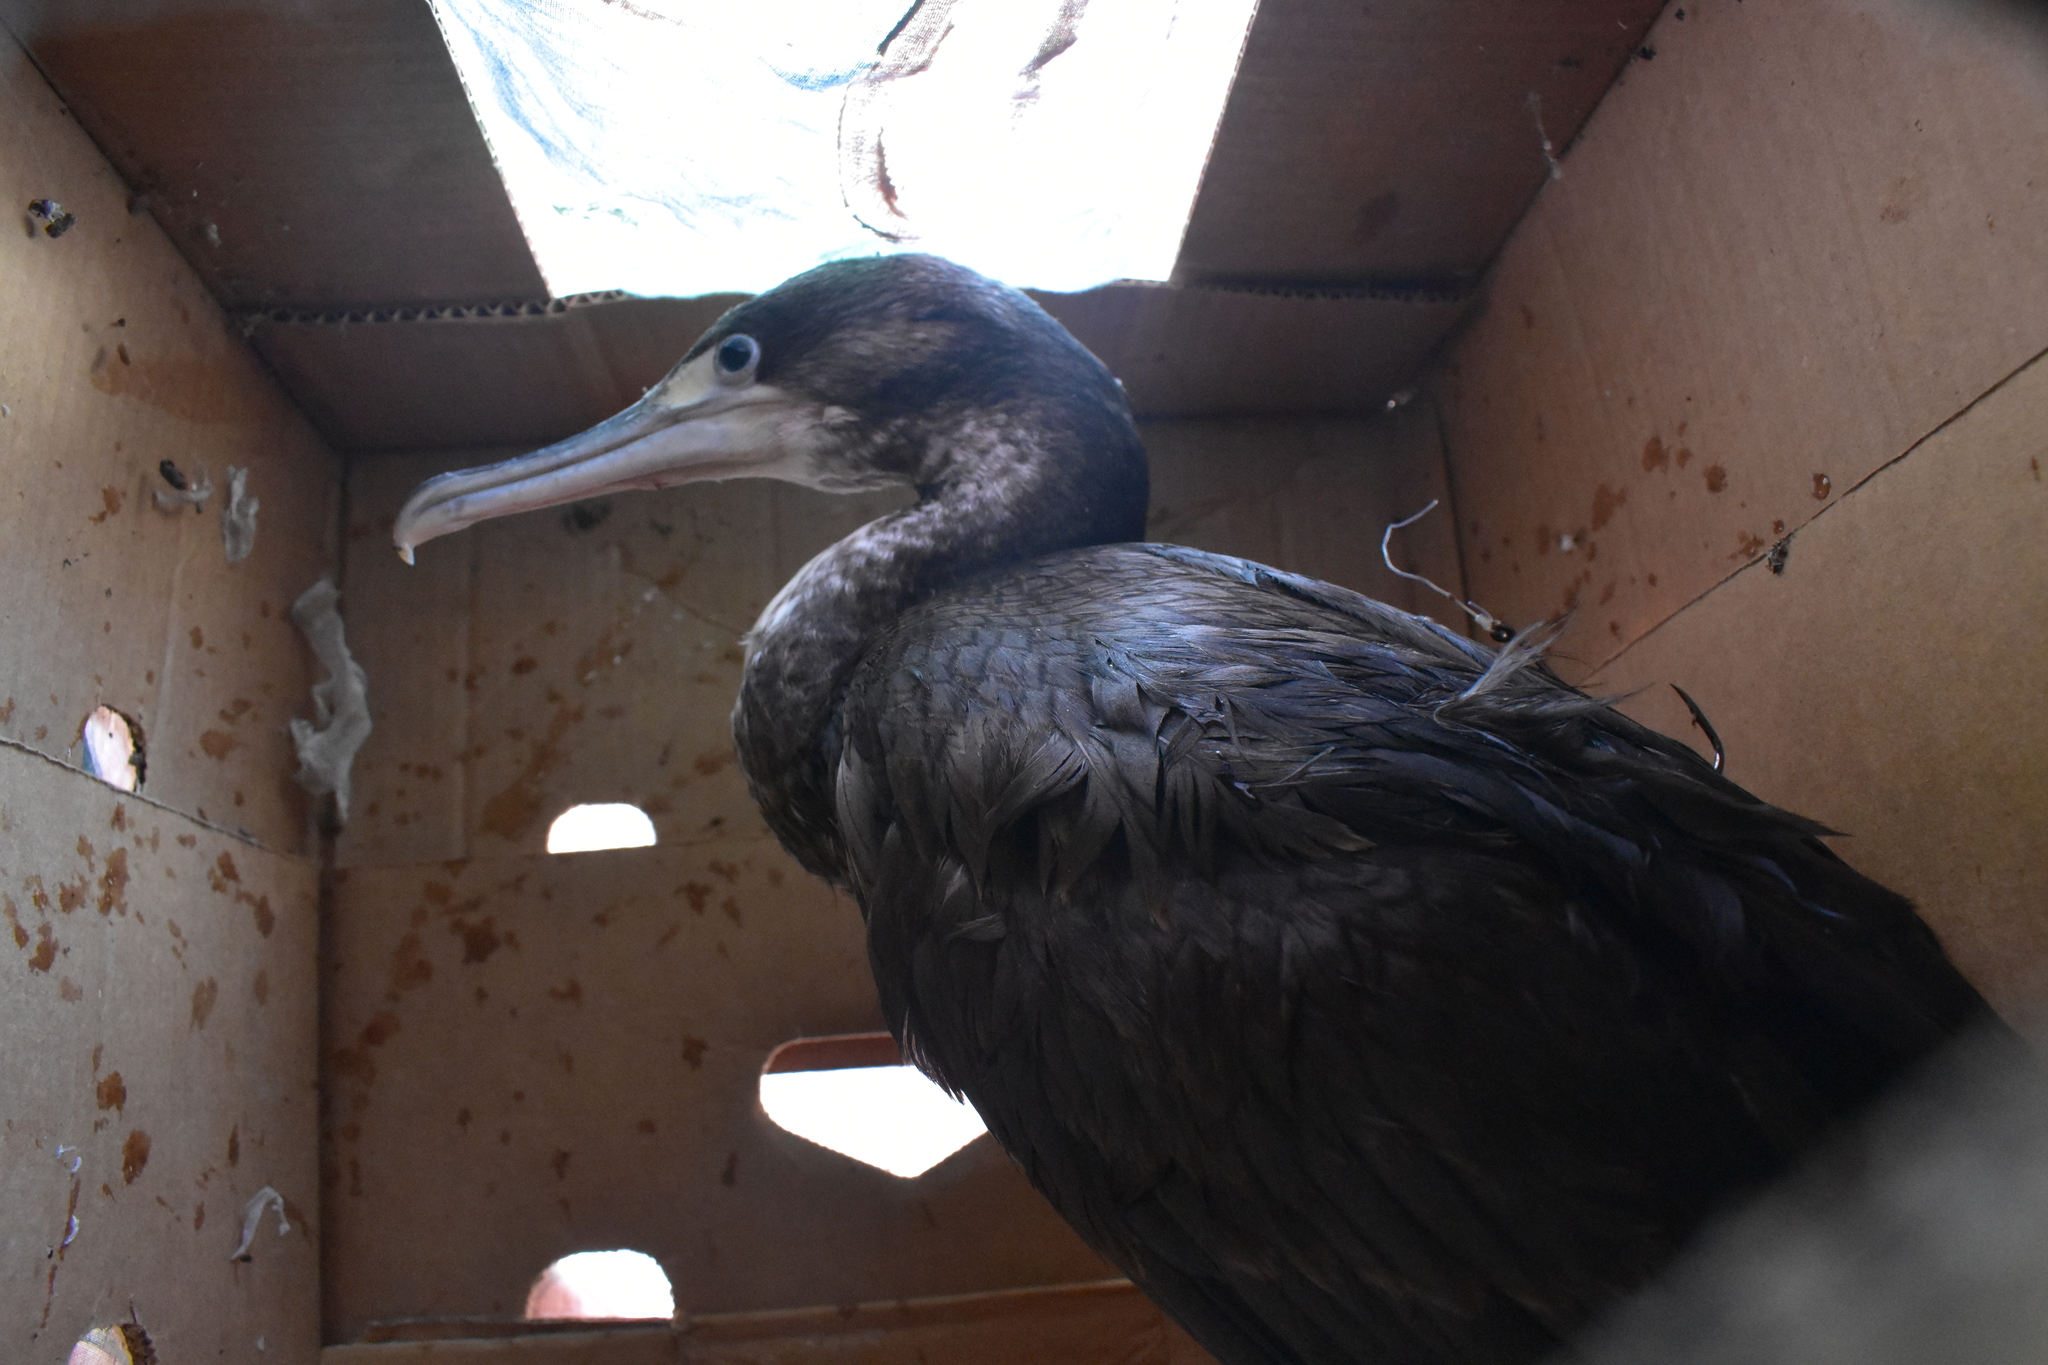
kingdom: Animalia
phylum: Chordata
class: Aves
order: Suliformes
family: Phalacrocoracidae
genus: Phalacrocorax
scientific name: Phalacrocorax varius
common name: Pied cormorant
